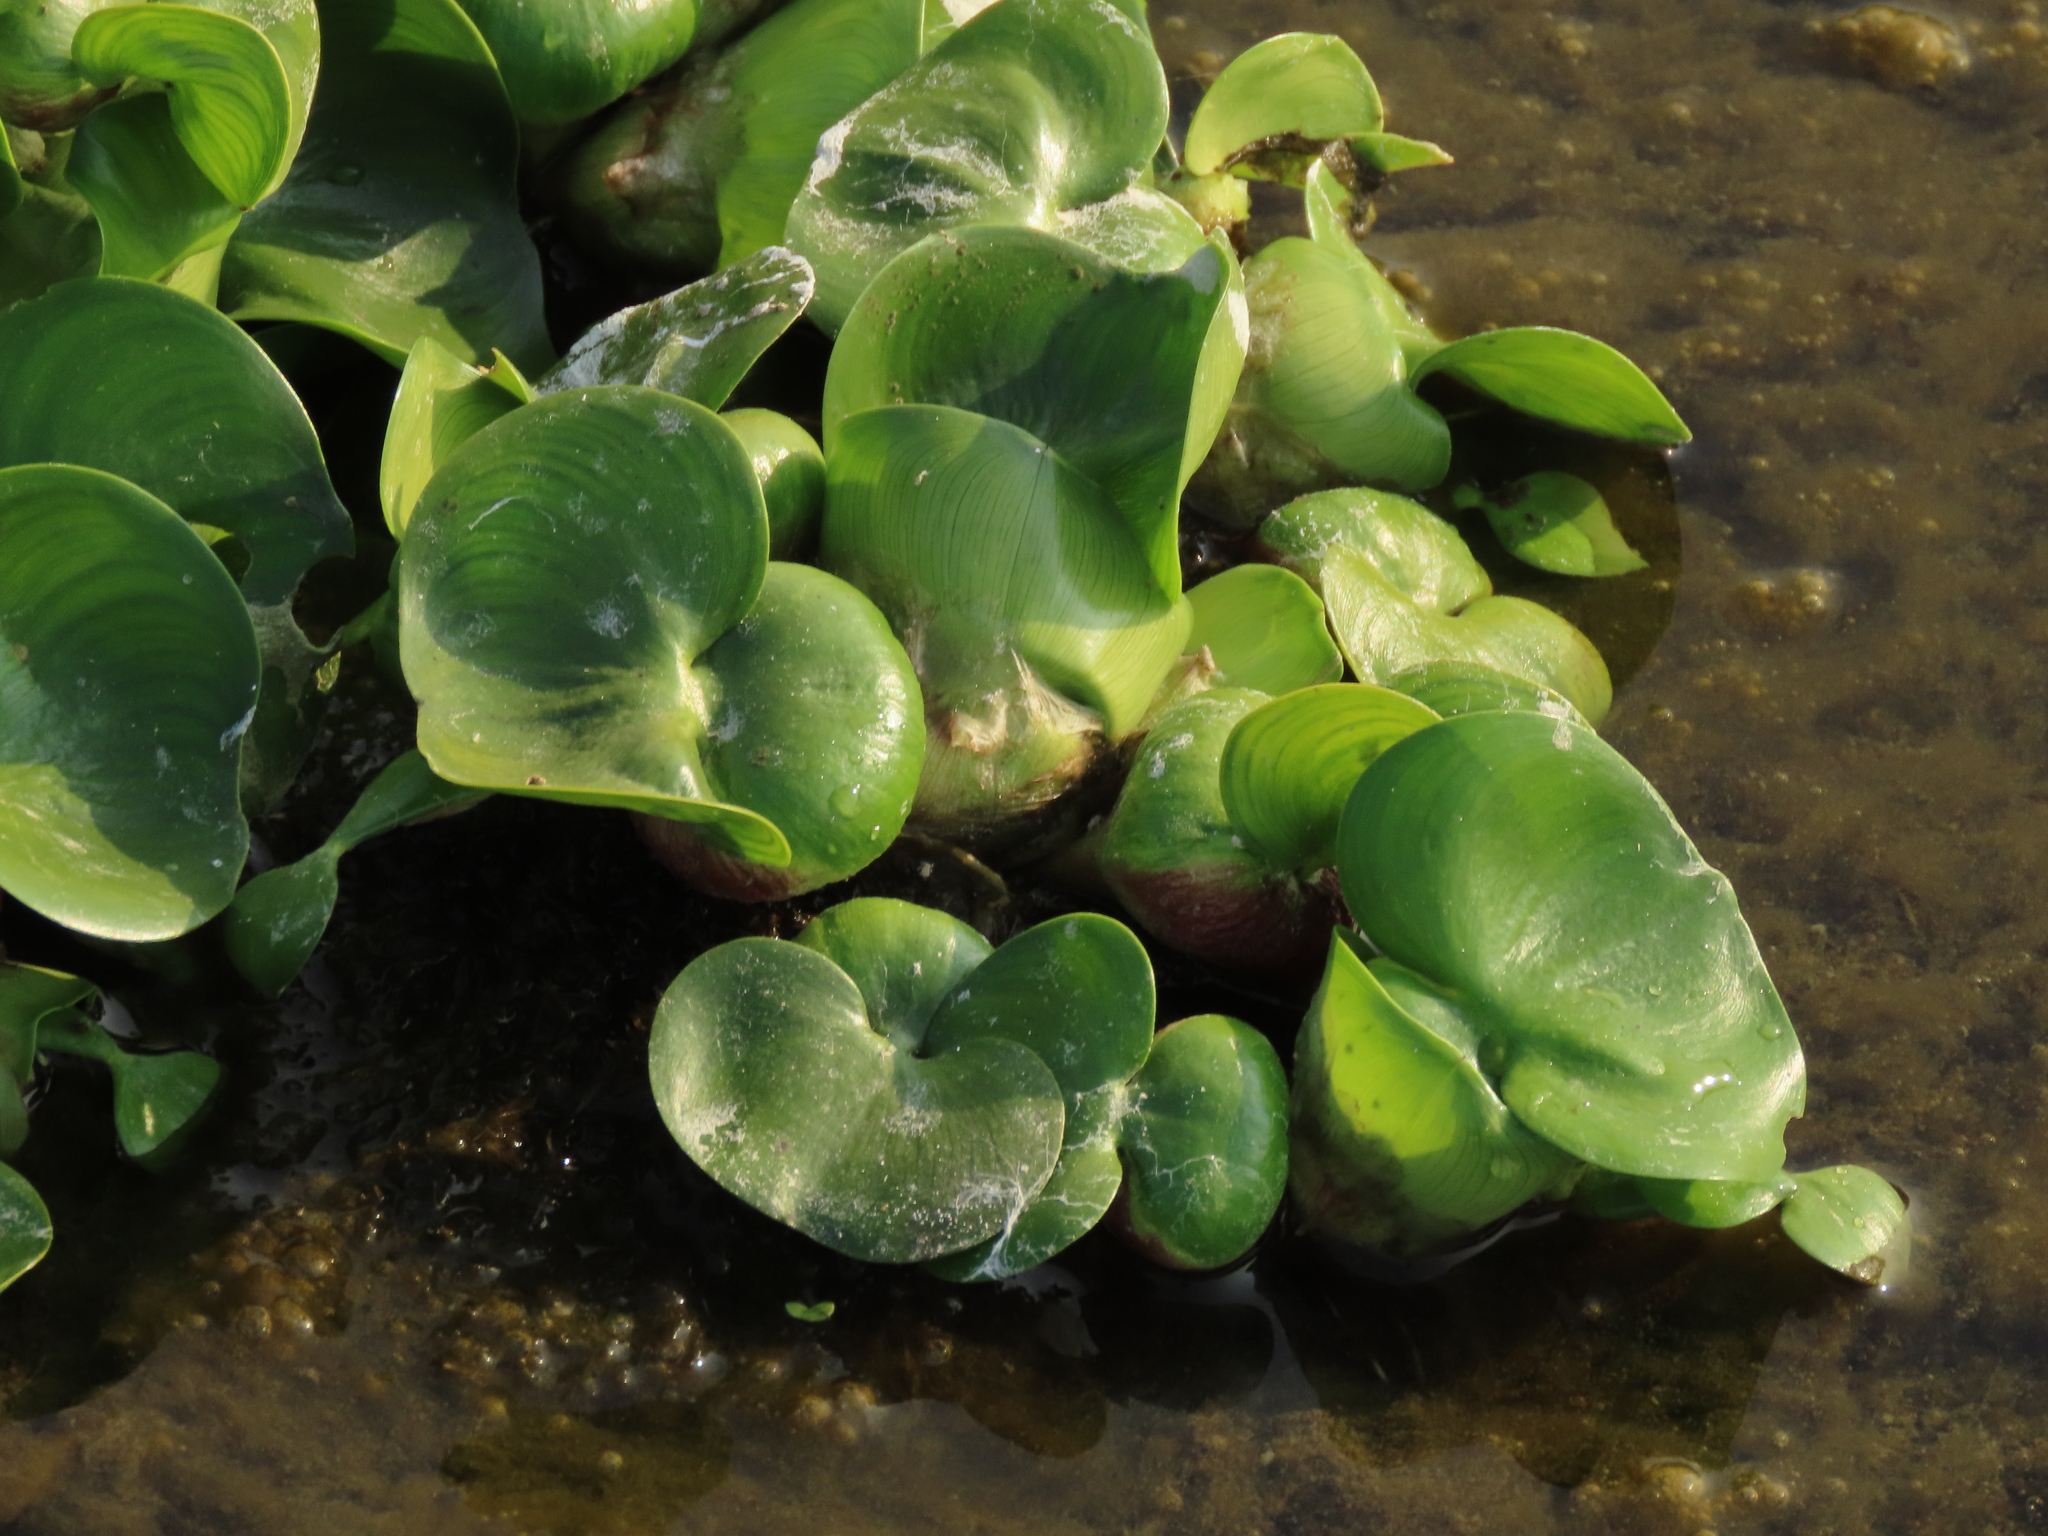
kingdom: Plantae
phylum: Tracheophyta
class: Liliopsida
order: Commelinales
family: Pontederiaceae
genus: Pontederia
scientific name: Pontederia crassipes
